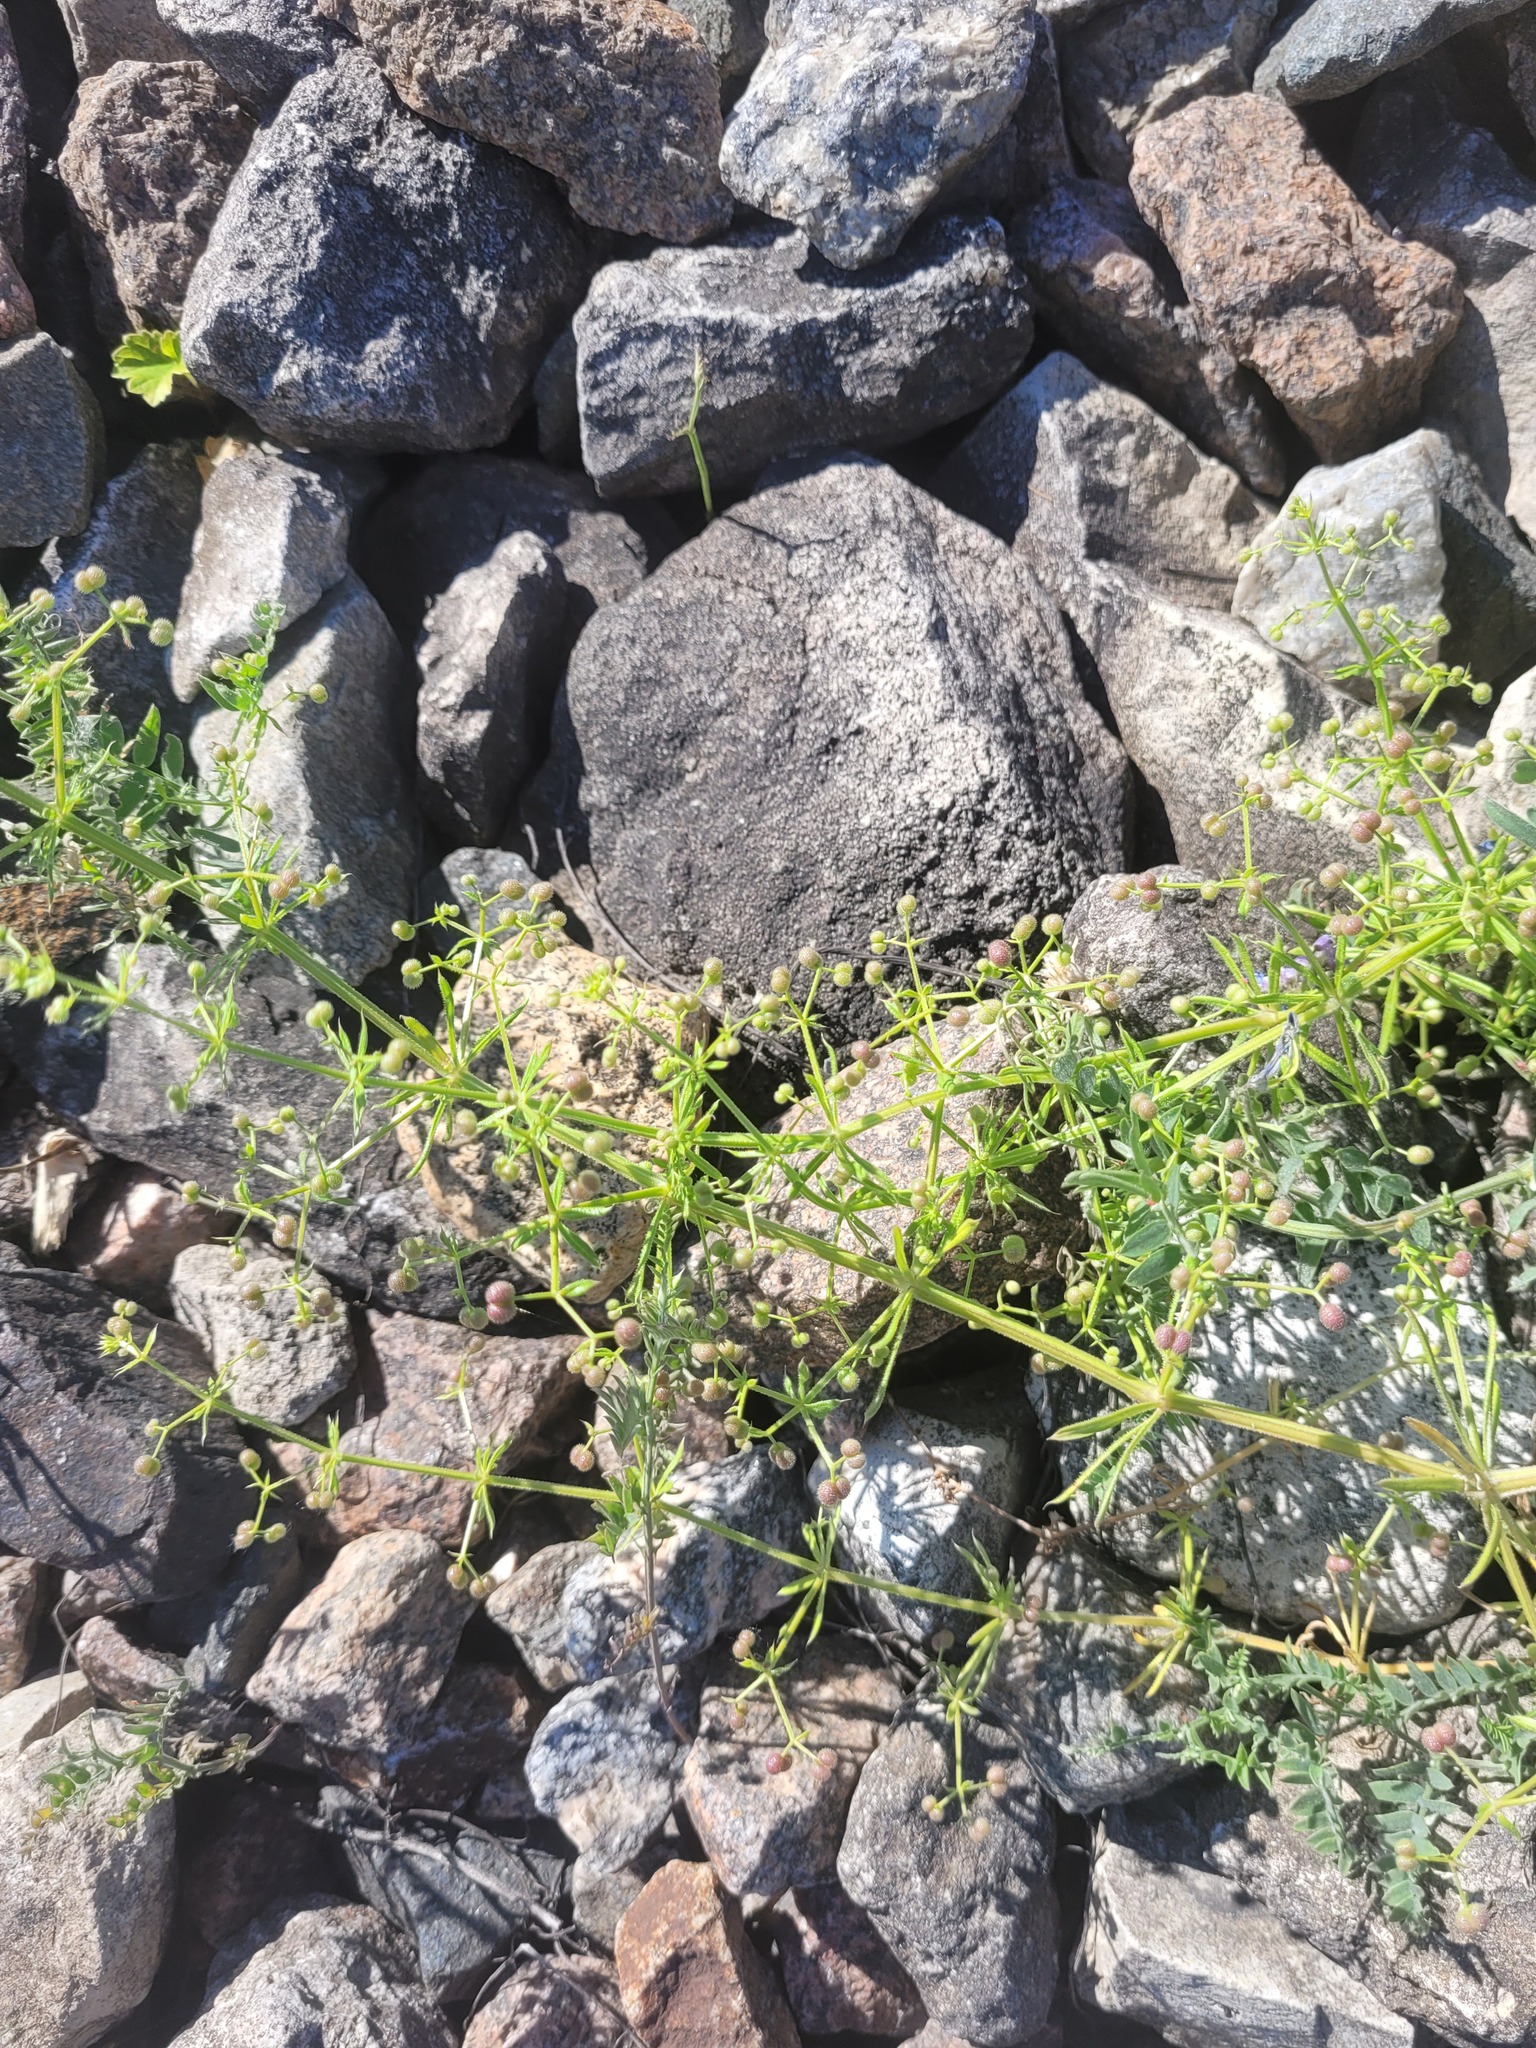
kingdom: Plantae
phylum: Tracheophyta
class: Magnoliopsida
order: Gentianales
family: Rubiaceae
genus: Galium
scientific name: Galium
